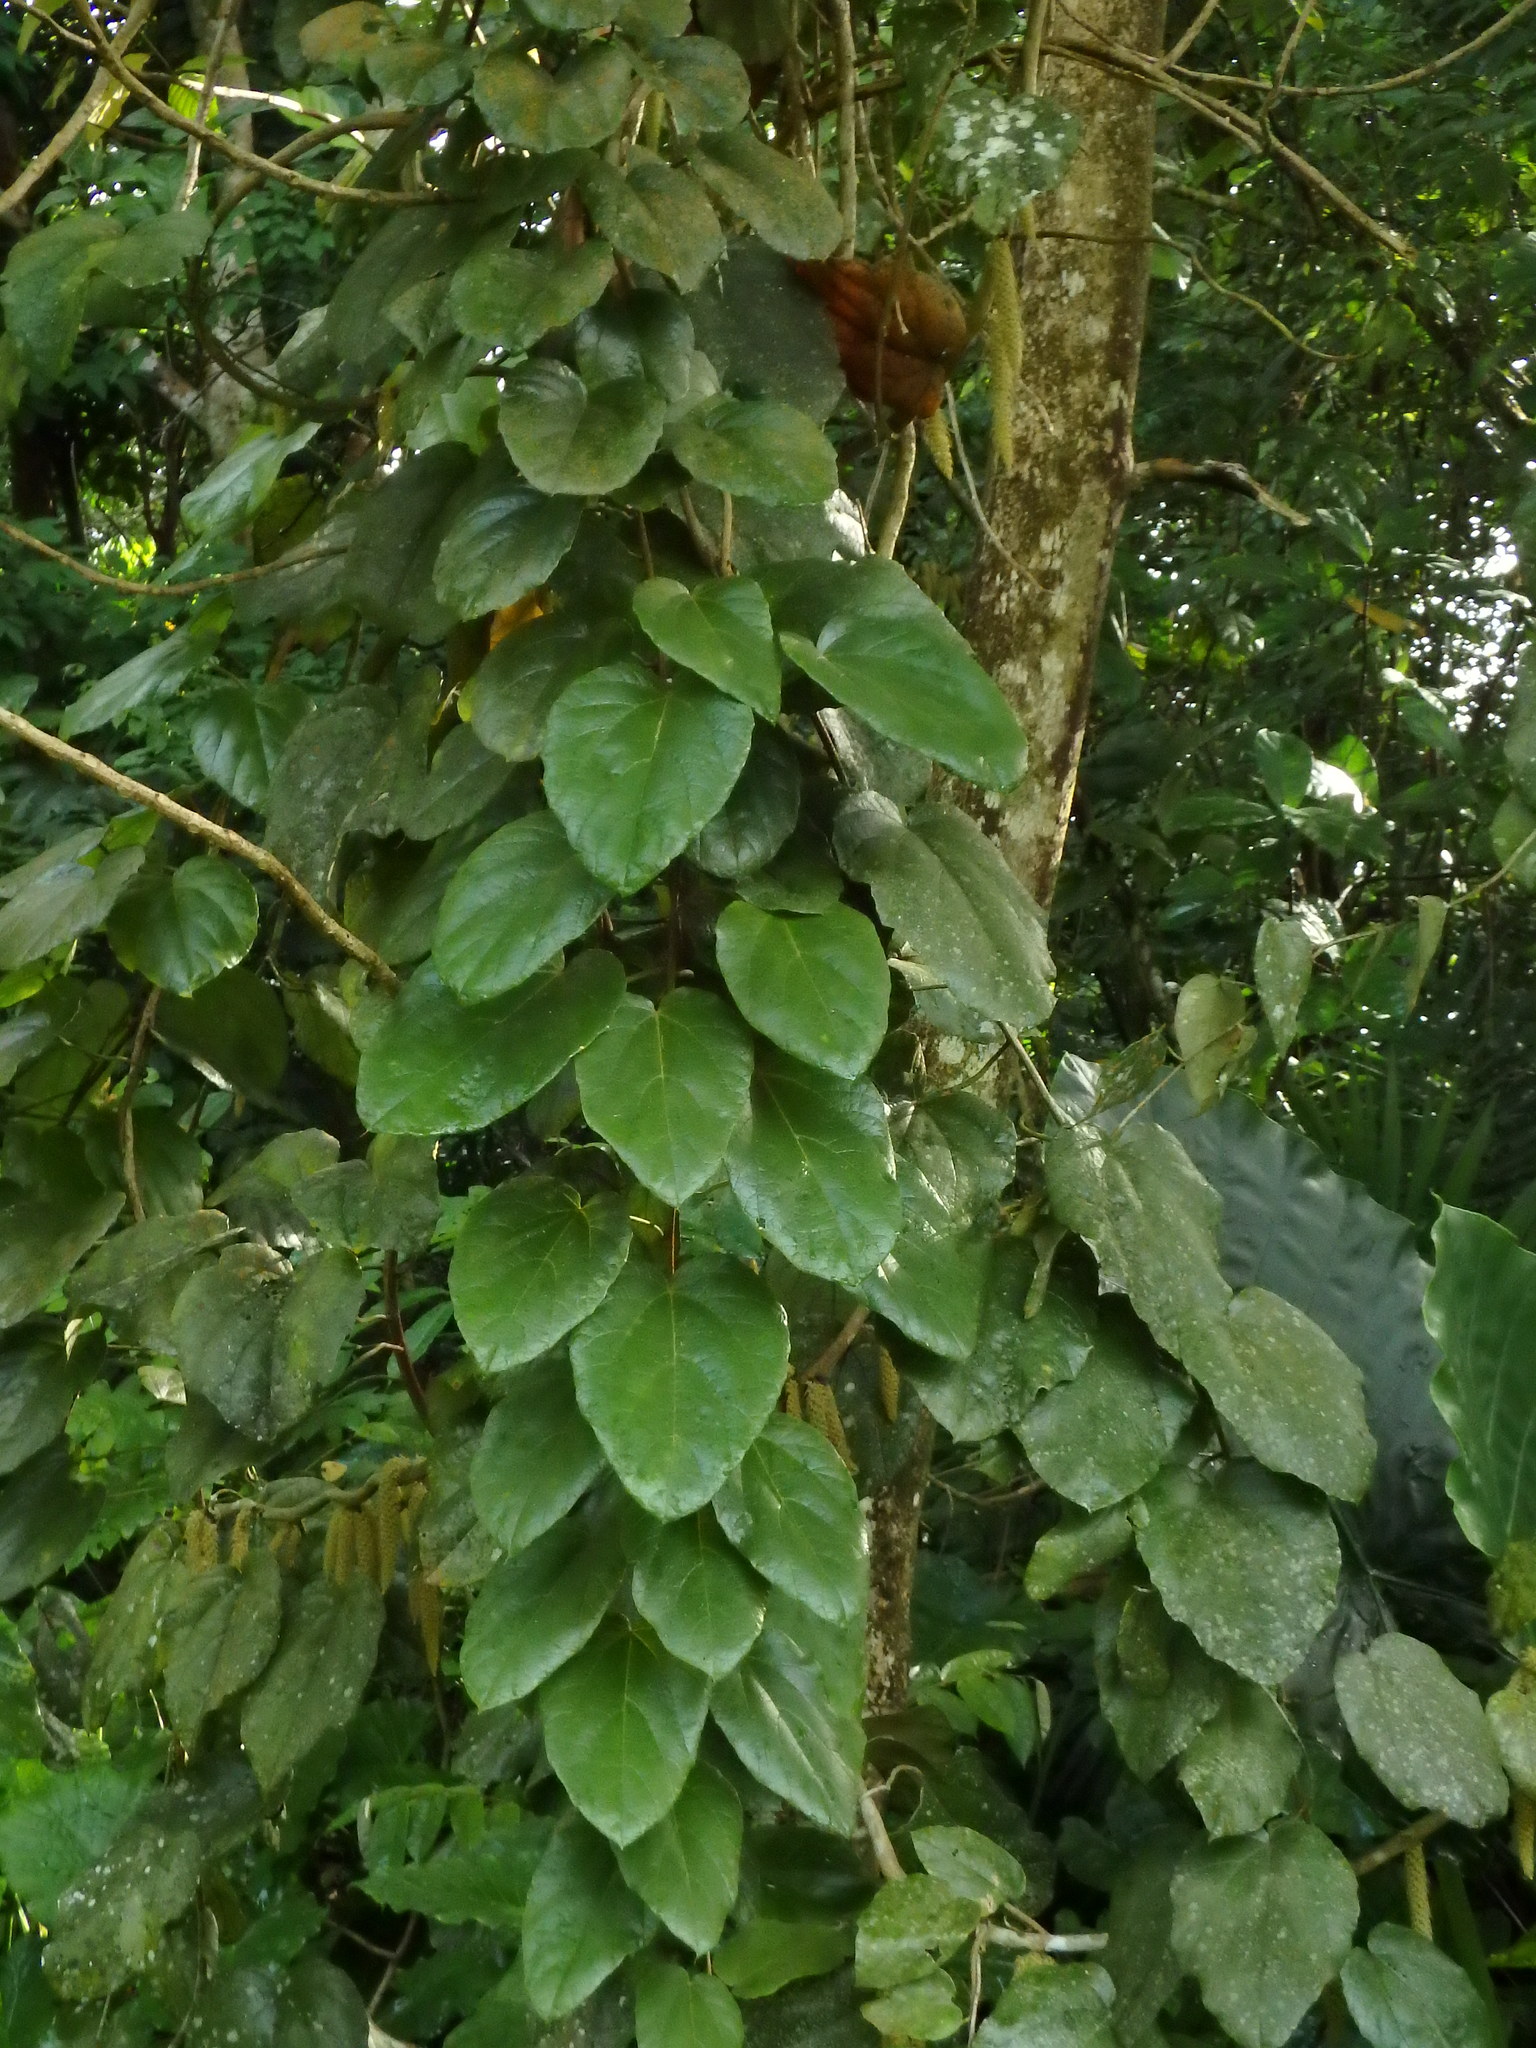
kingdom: Plantae
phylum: Tracheophyta
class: Magnoliopsida
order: Icacinales
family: Icacinaceae
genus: Phytocrene
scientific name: Phytocrene bracteata
